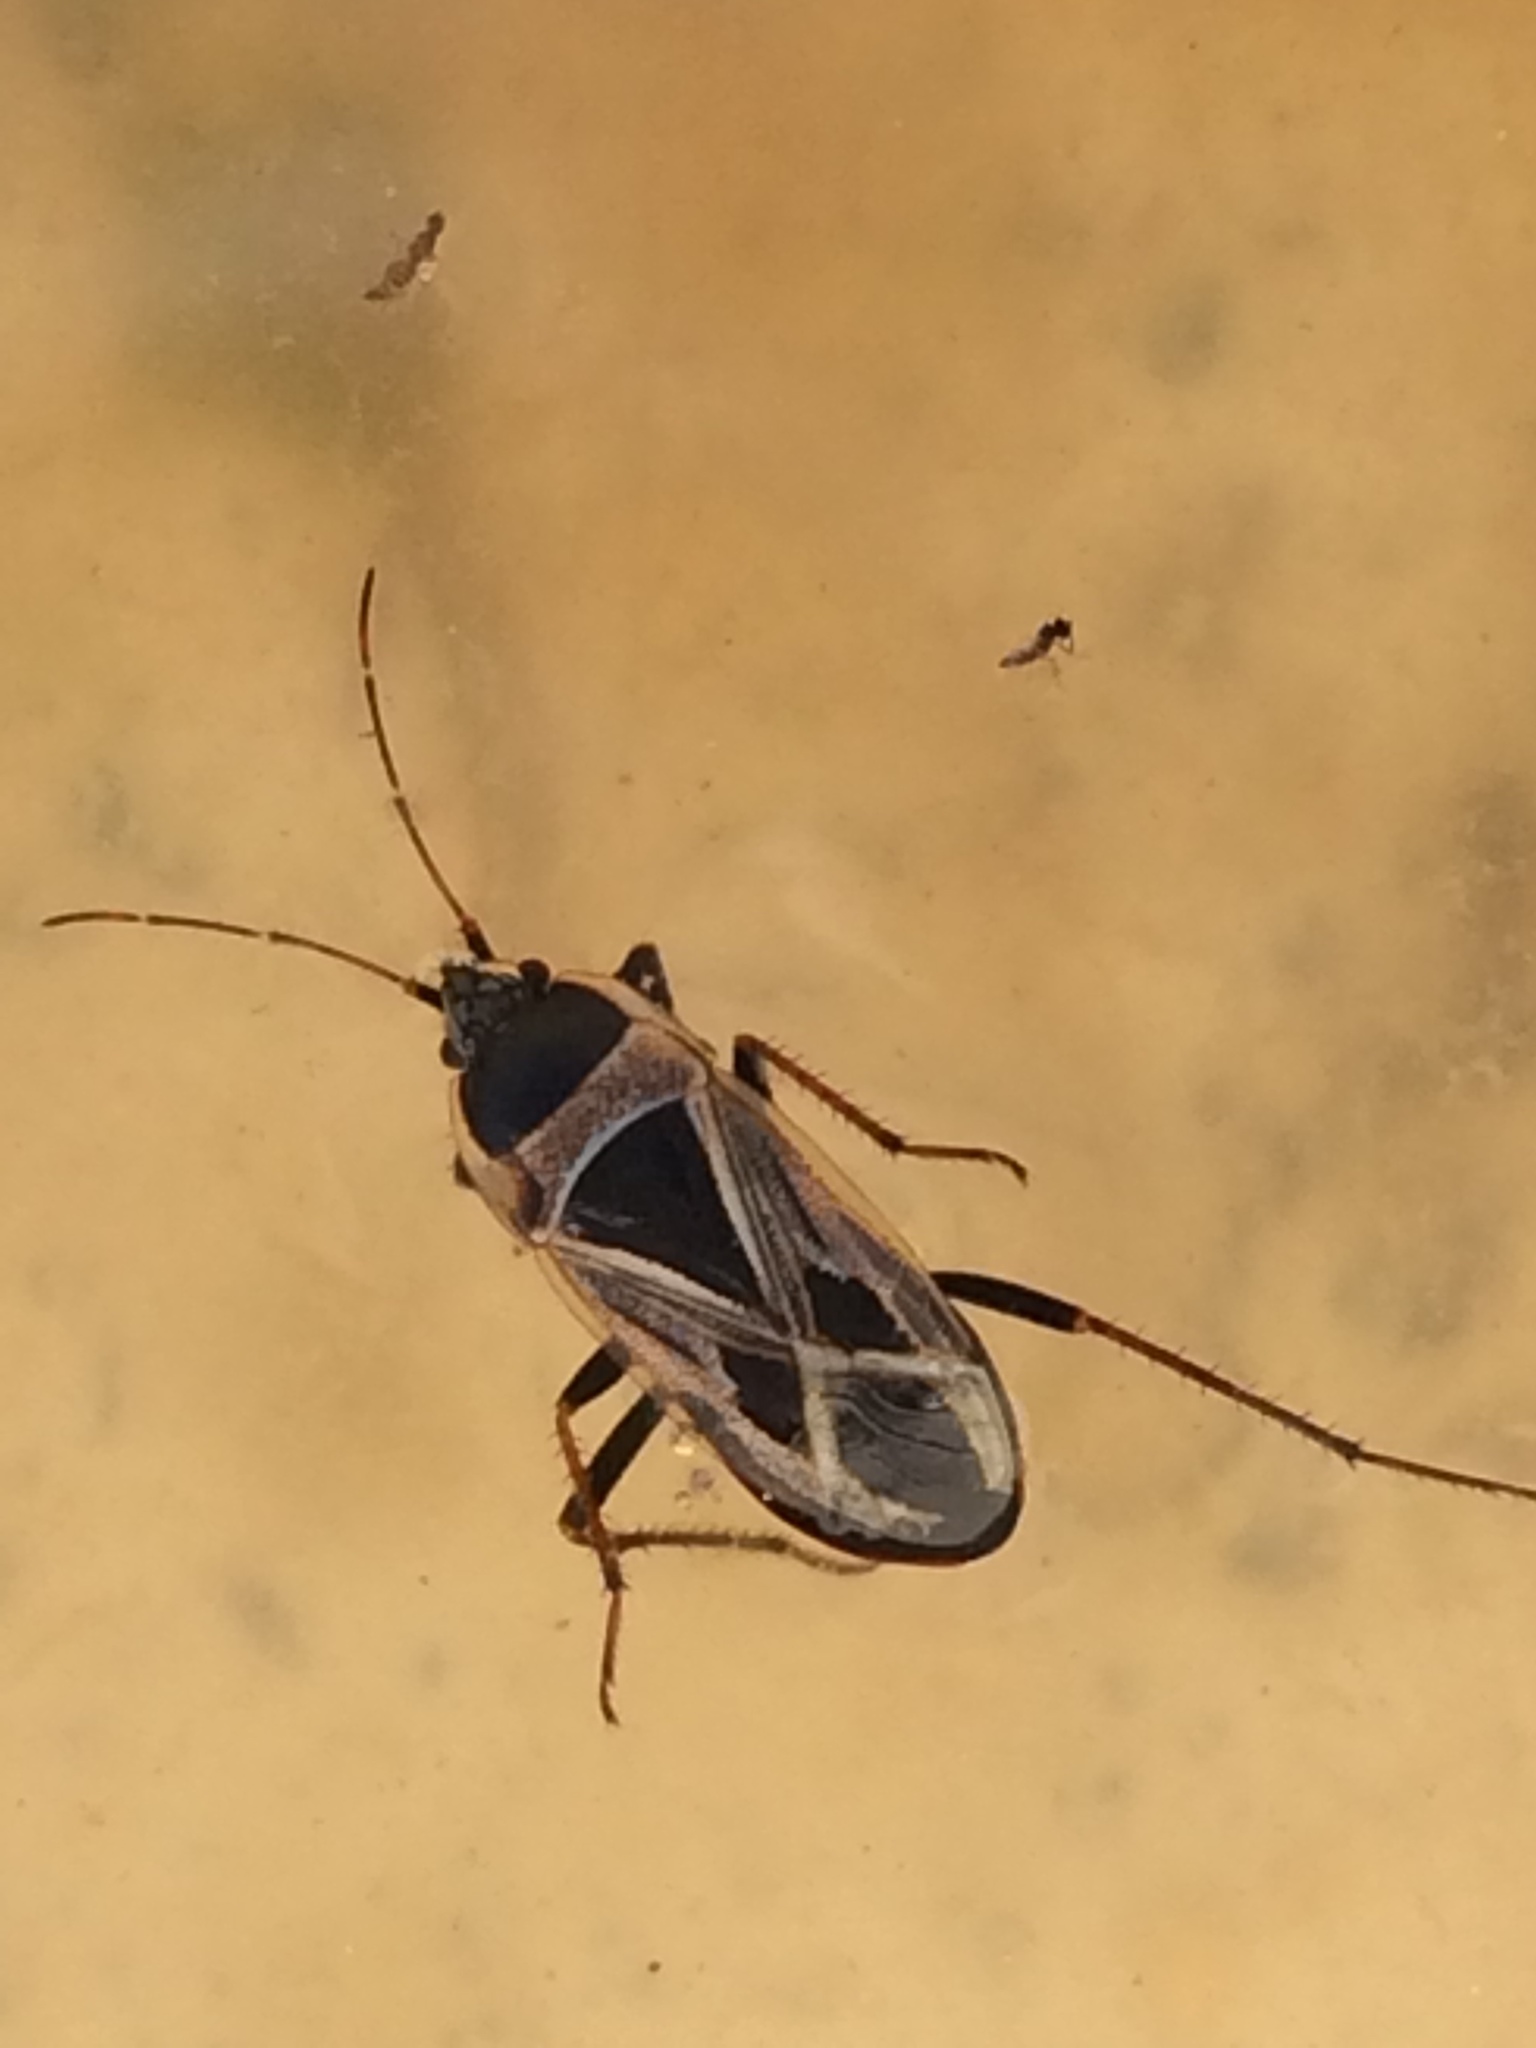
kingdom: Animalia
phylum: Arthropoda
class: Insecta
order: Hemiptera
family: Rhyparochromidae
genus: Xanthochilus
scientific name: Xanthochilus saturnius
